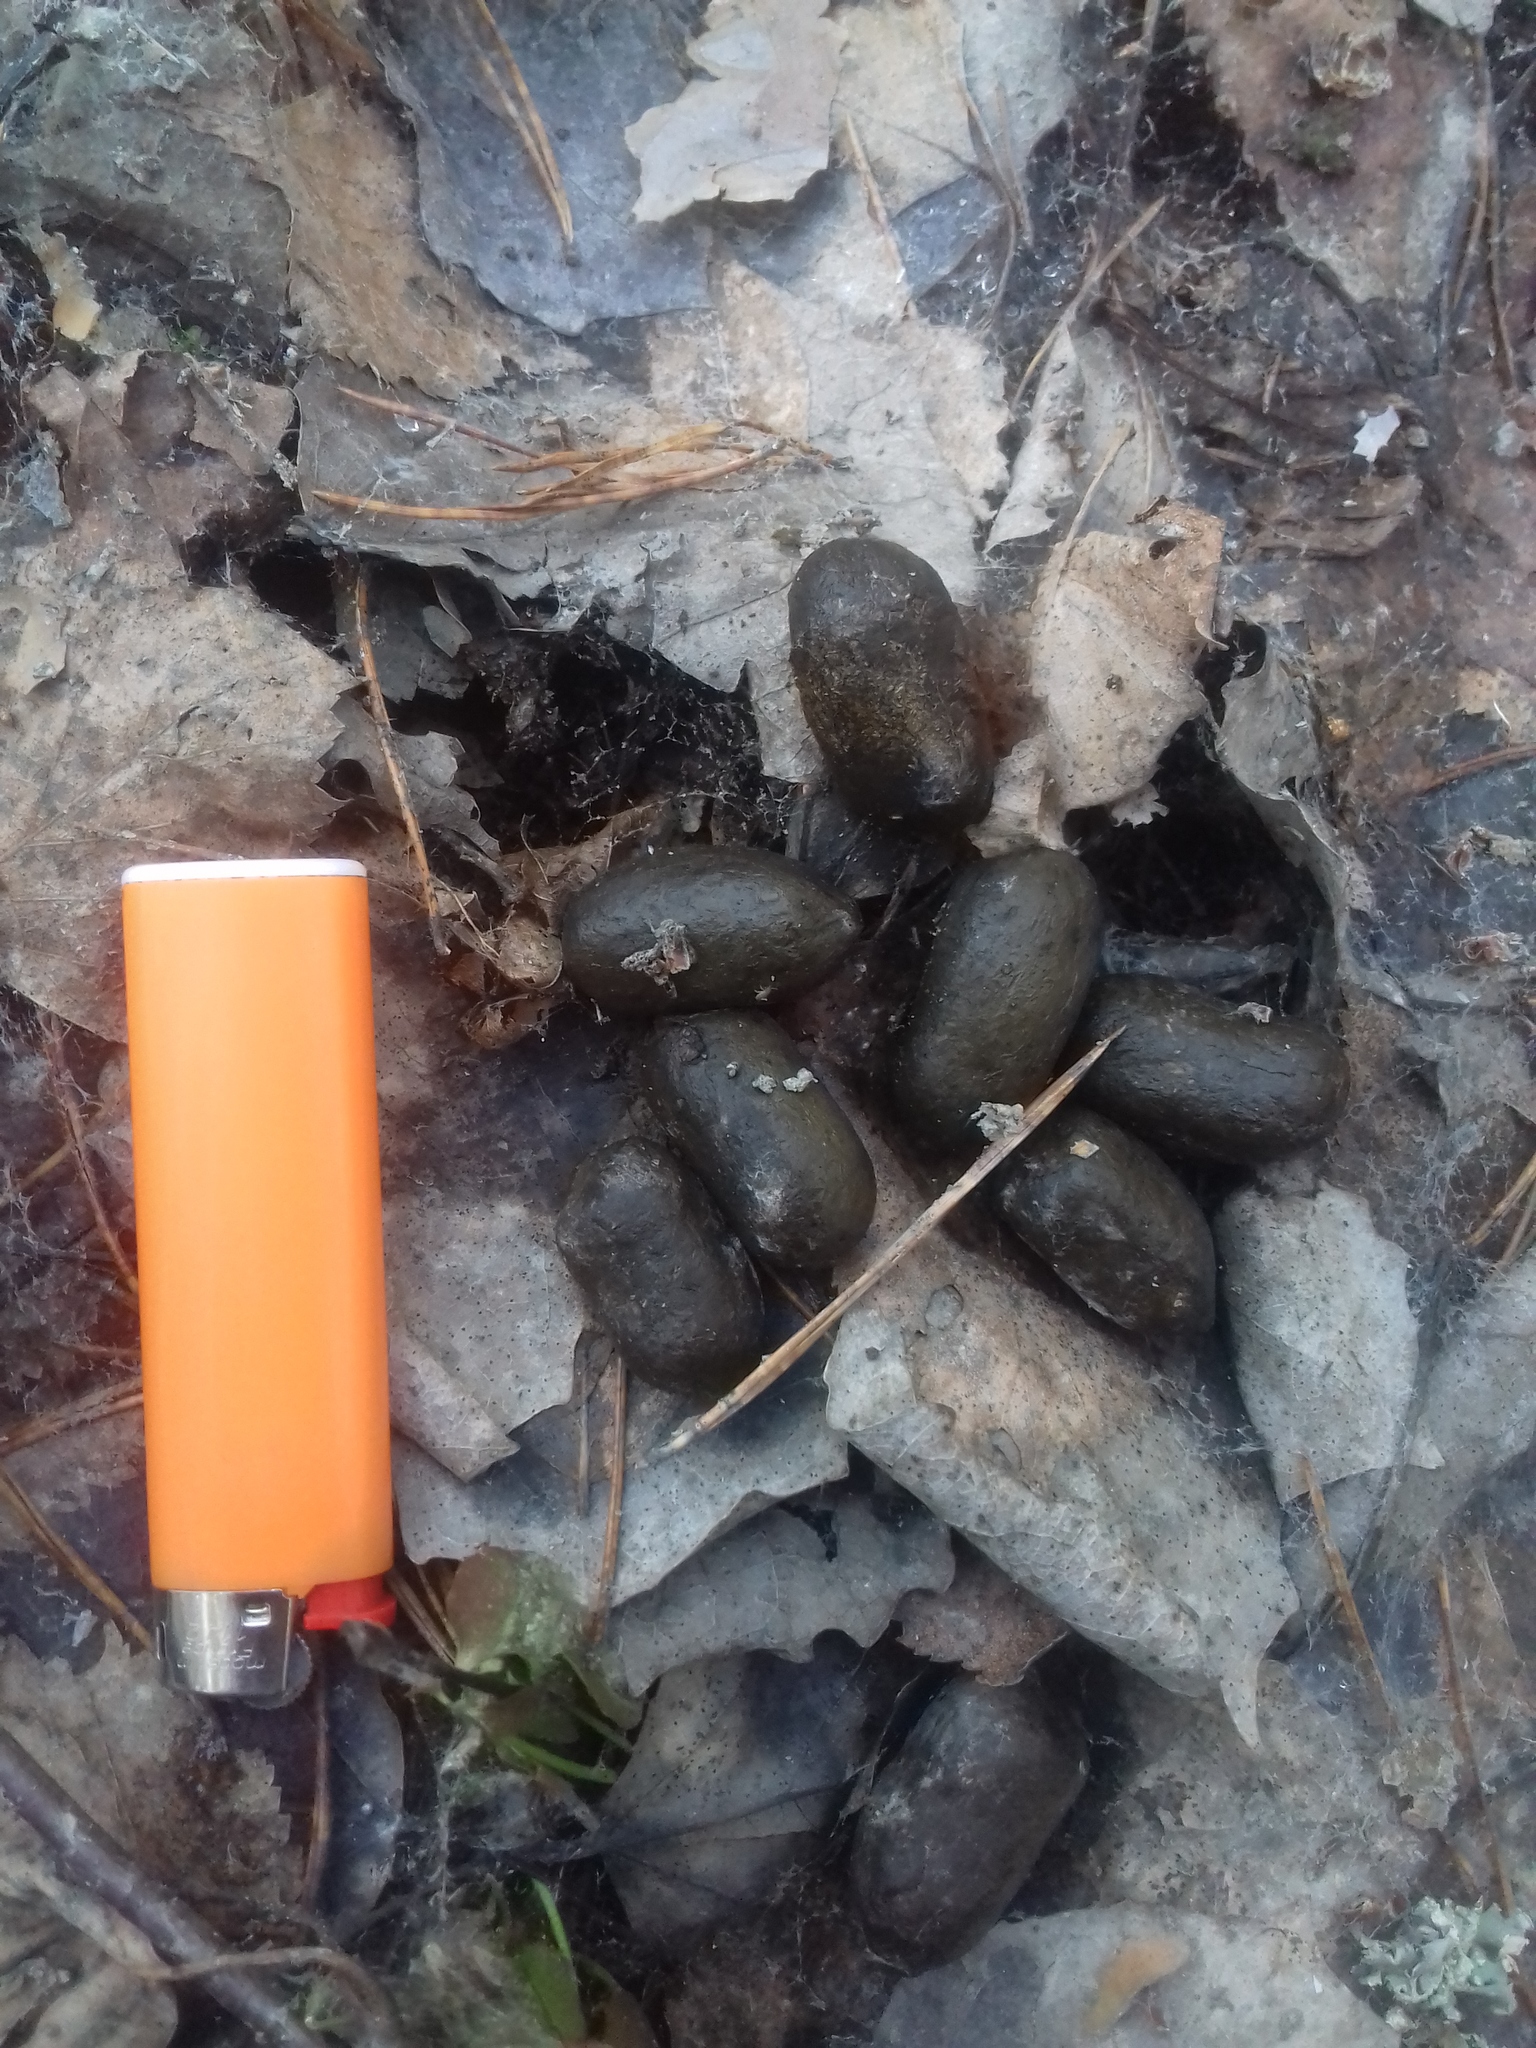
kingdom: Animalia
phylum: Chordata
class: Mammalia
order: Artiodactyla
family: Cervidae
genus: Alces
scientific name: Alces alces
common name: Moose
